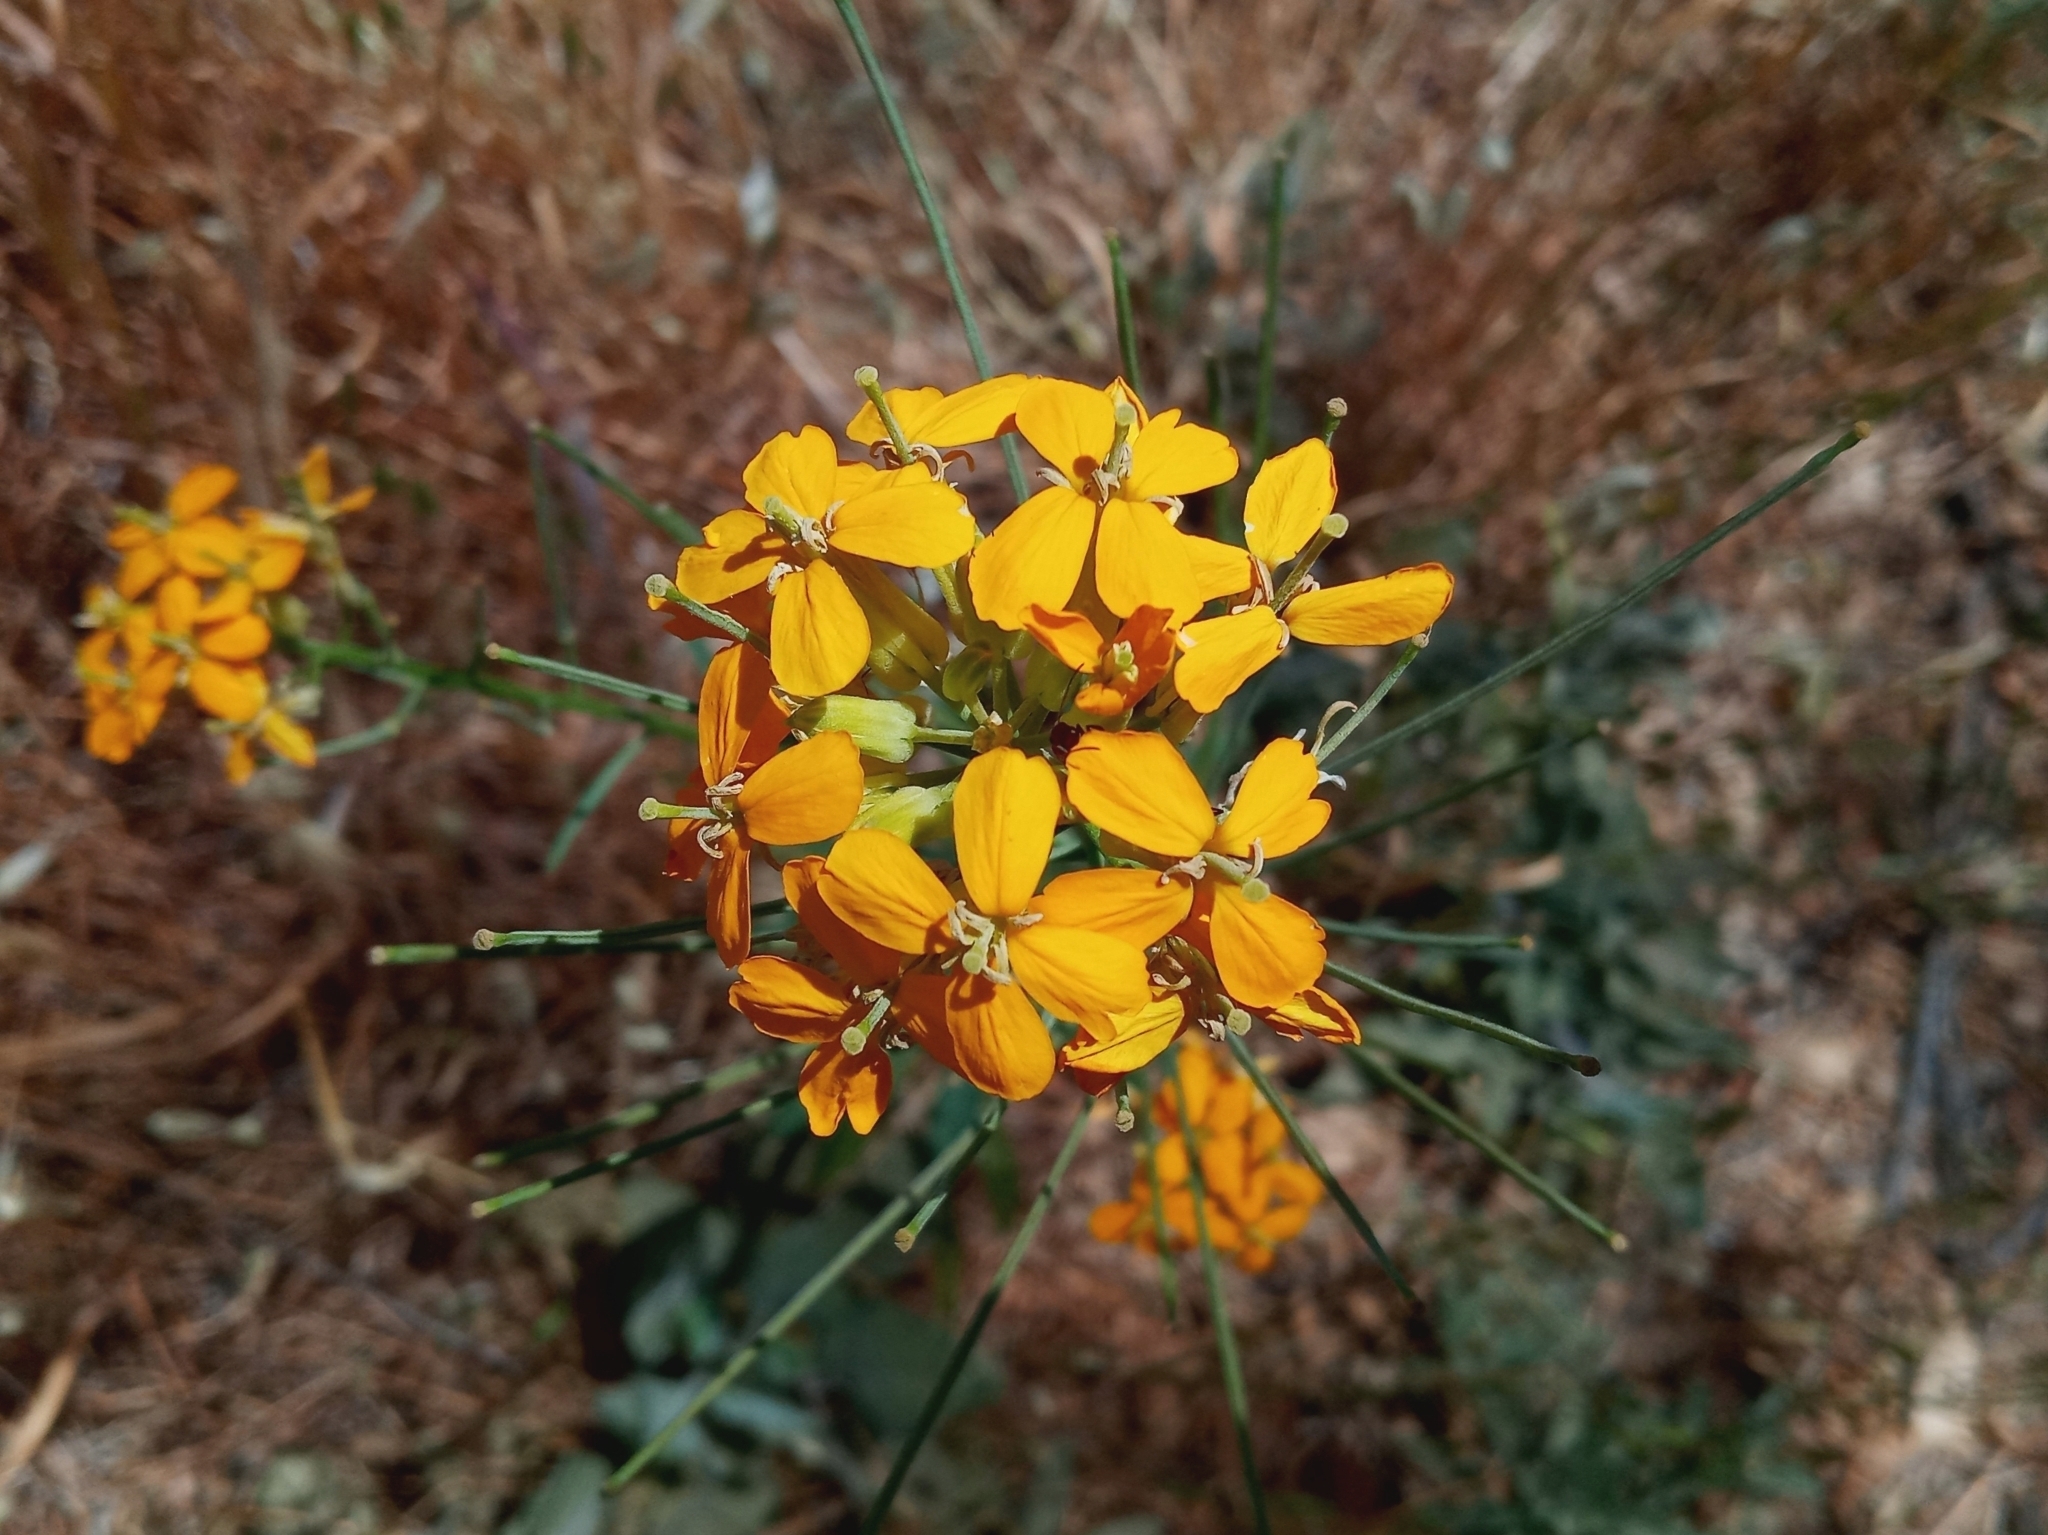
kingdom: Plantae
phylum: Tracheophyta
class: Magnoliopsida
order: Brassicales
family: Brassicaceae
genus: Erysimum
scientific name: Erysimum capitatum
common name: Western wallflower
